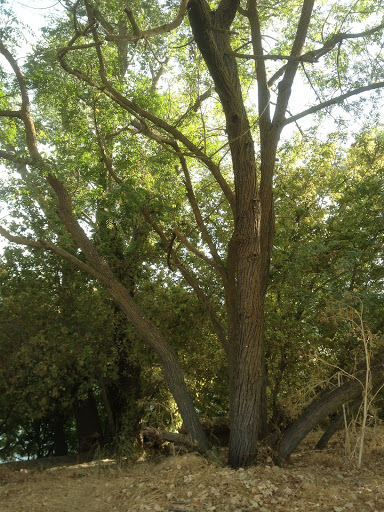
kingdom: Plantae
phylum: Tracheophyta
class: Magnoliopsida
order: Fagales
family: Juglandaceae
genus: Juglans
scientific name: Juglans hindsii
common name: Northern california black walnut
